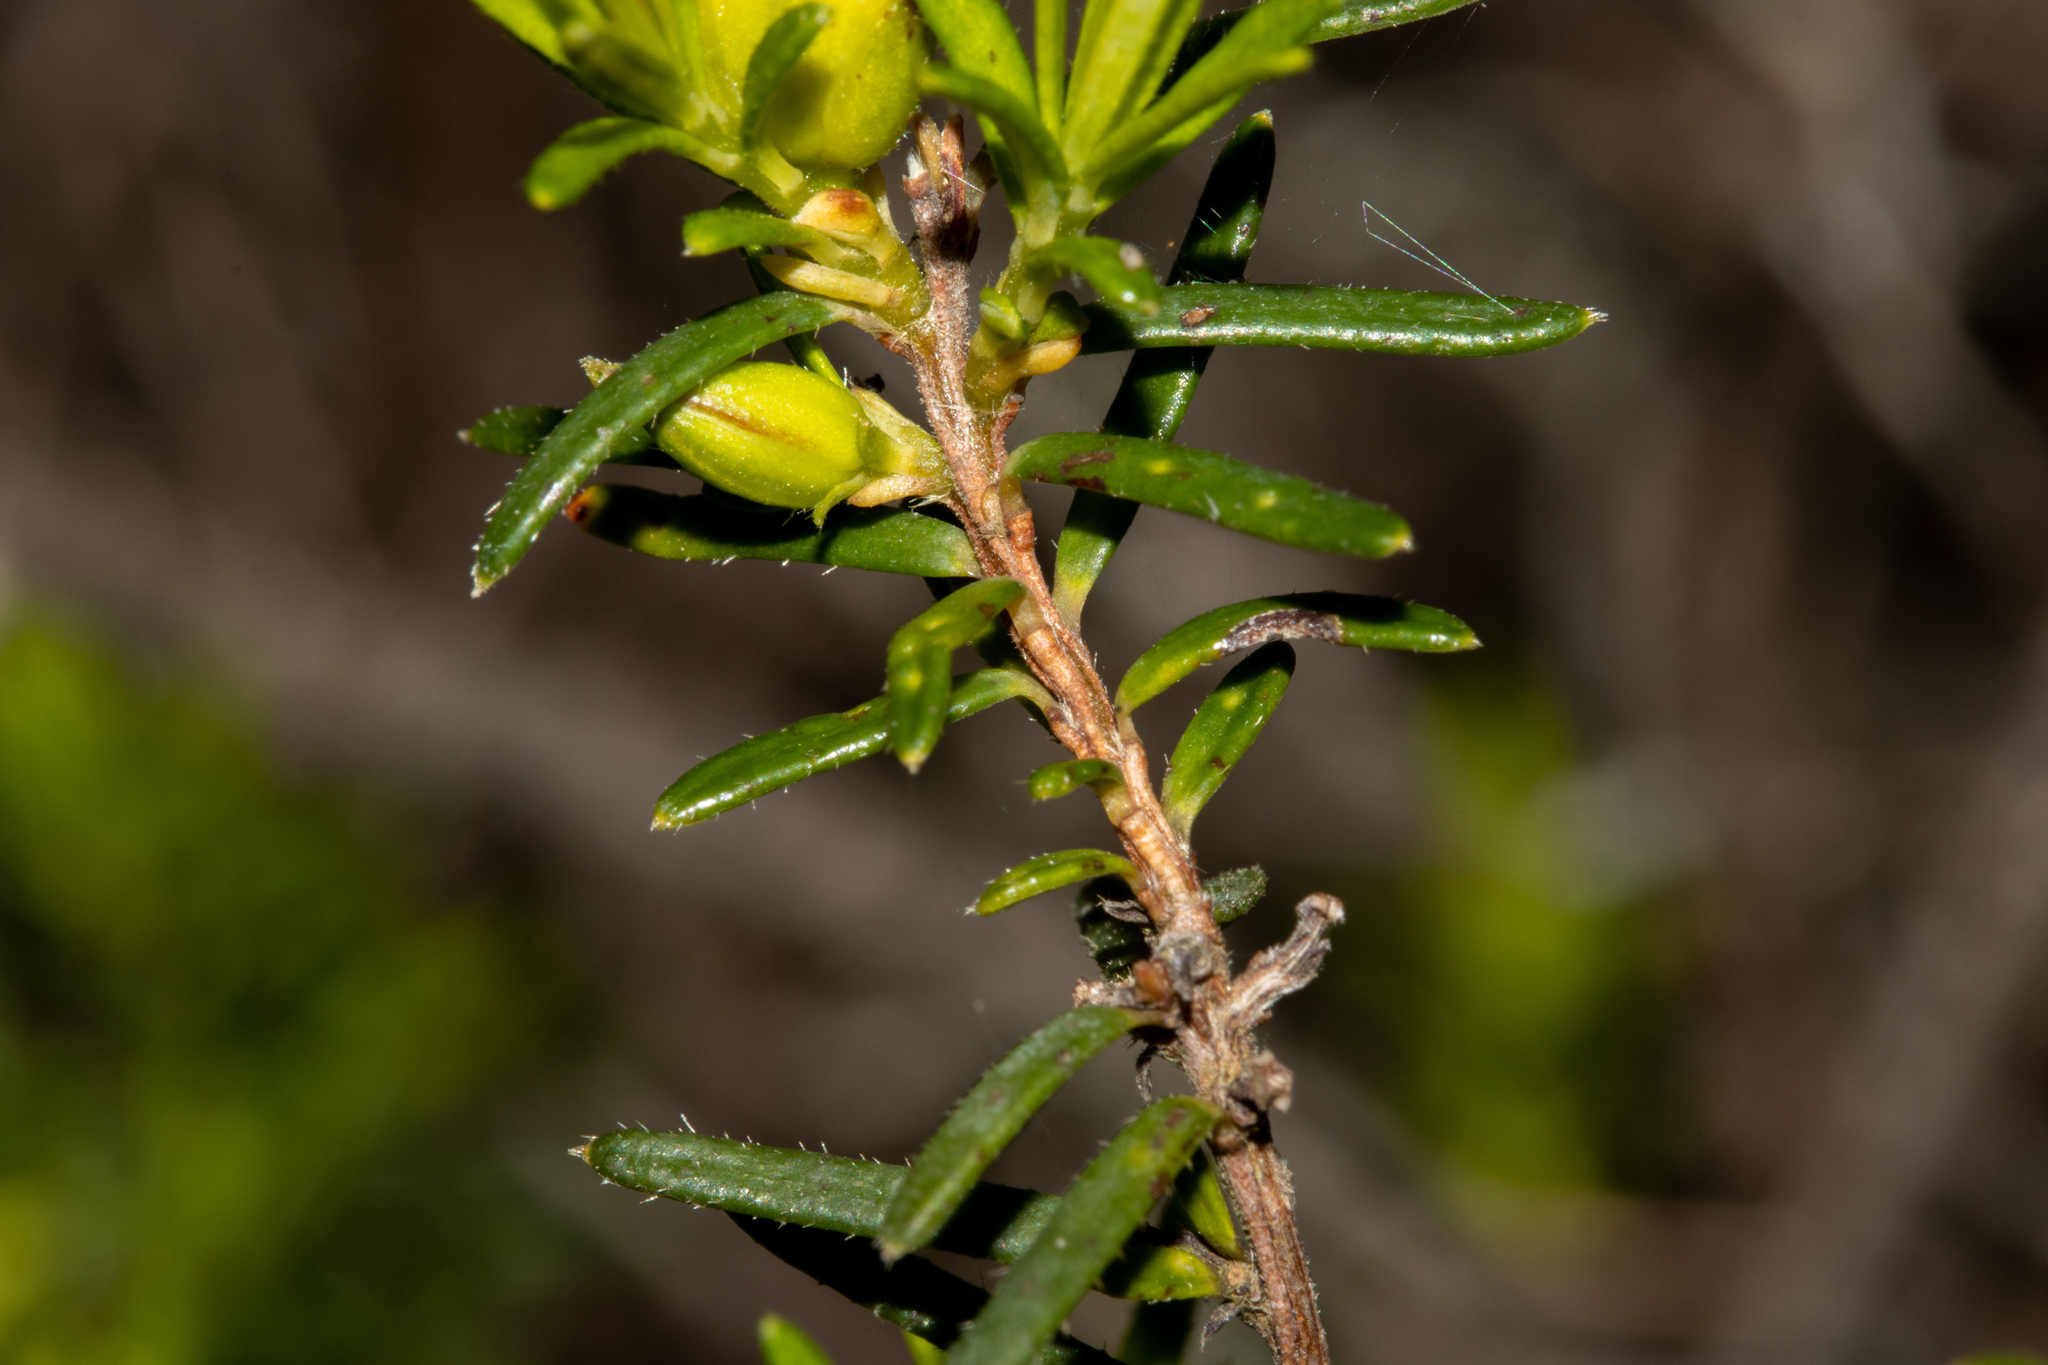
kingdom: Plantae
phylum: Tracheophyta
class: Magnoliopsida
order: Dilleniales
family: Dilleniaceae
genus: Hibbertia
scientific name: Hibbertia riparia
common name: Erect guinea-flower
